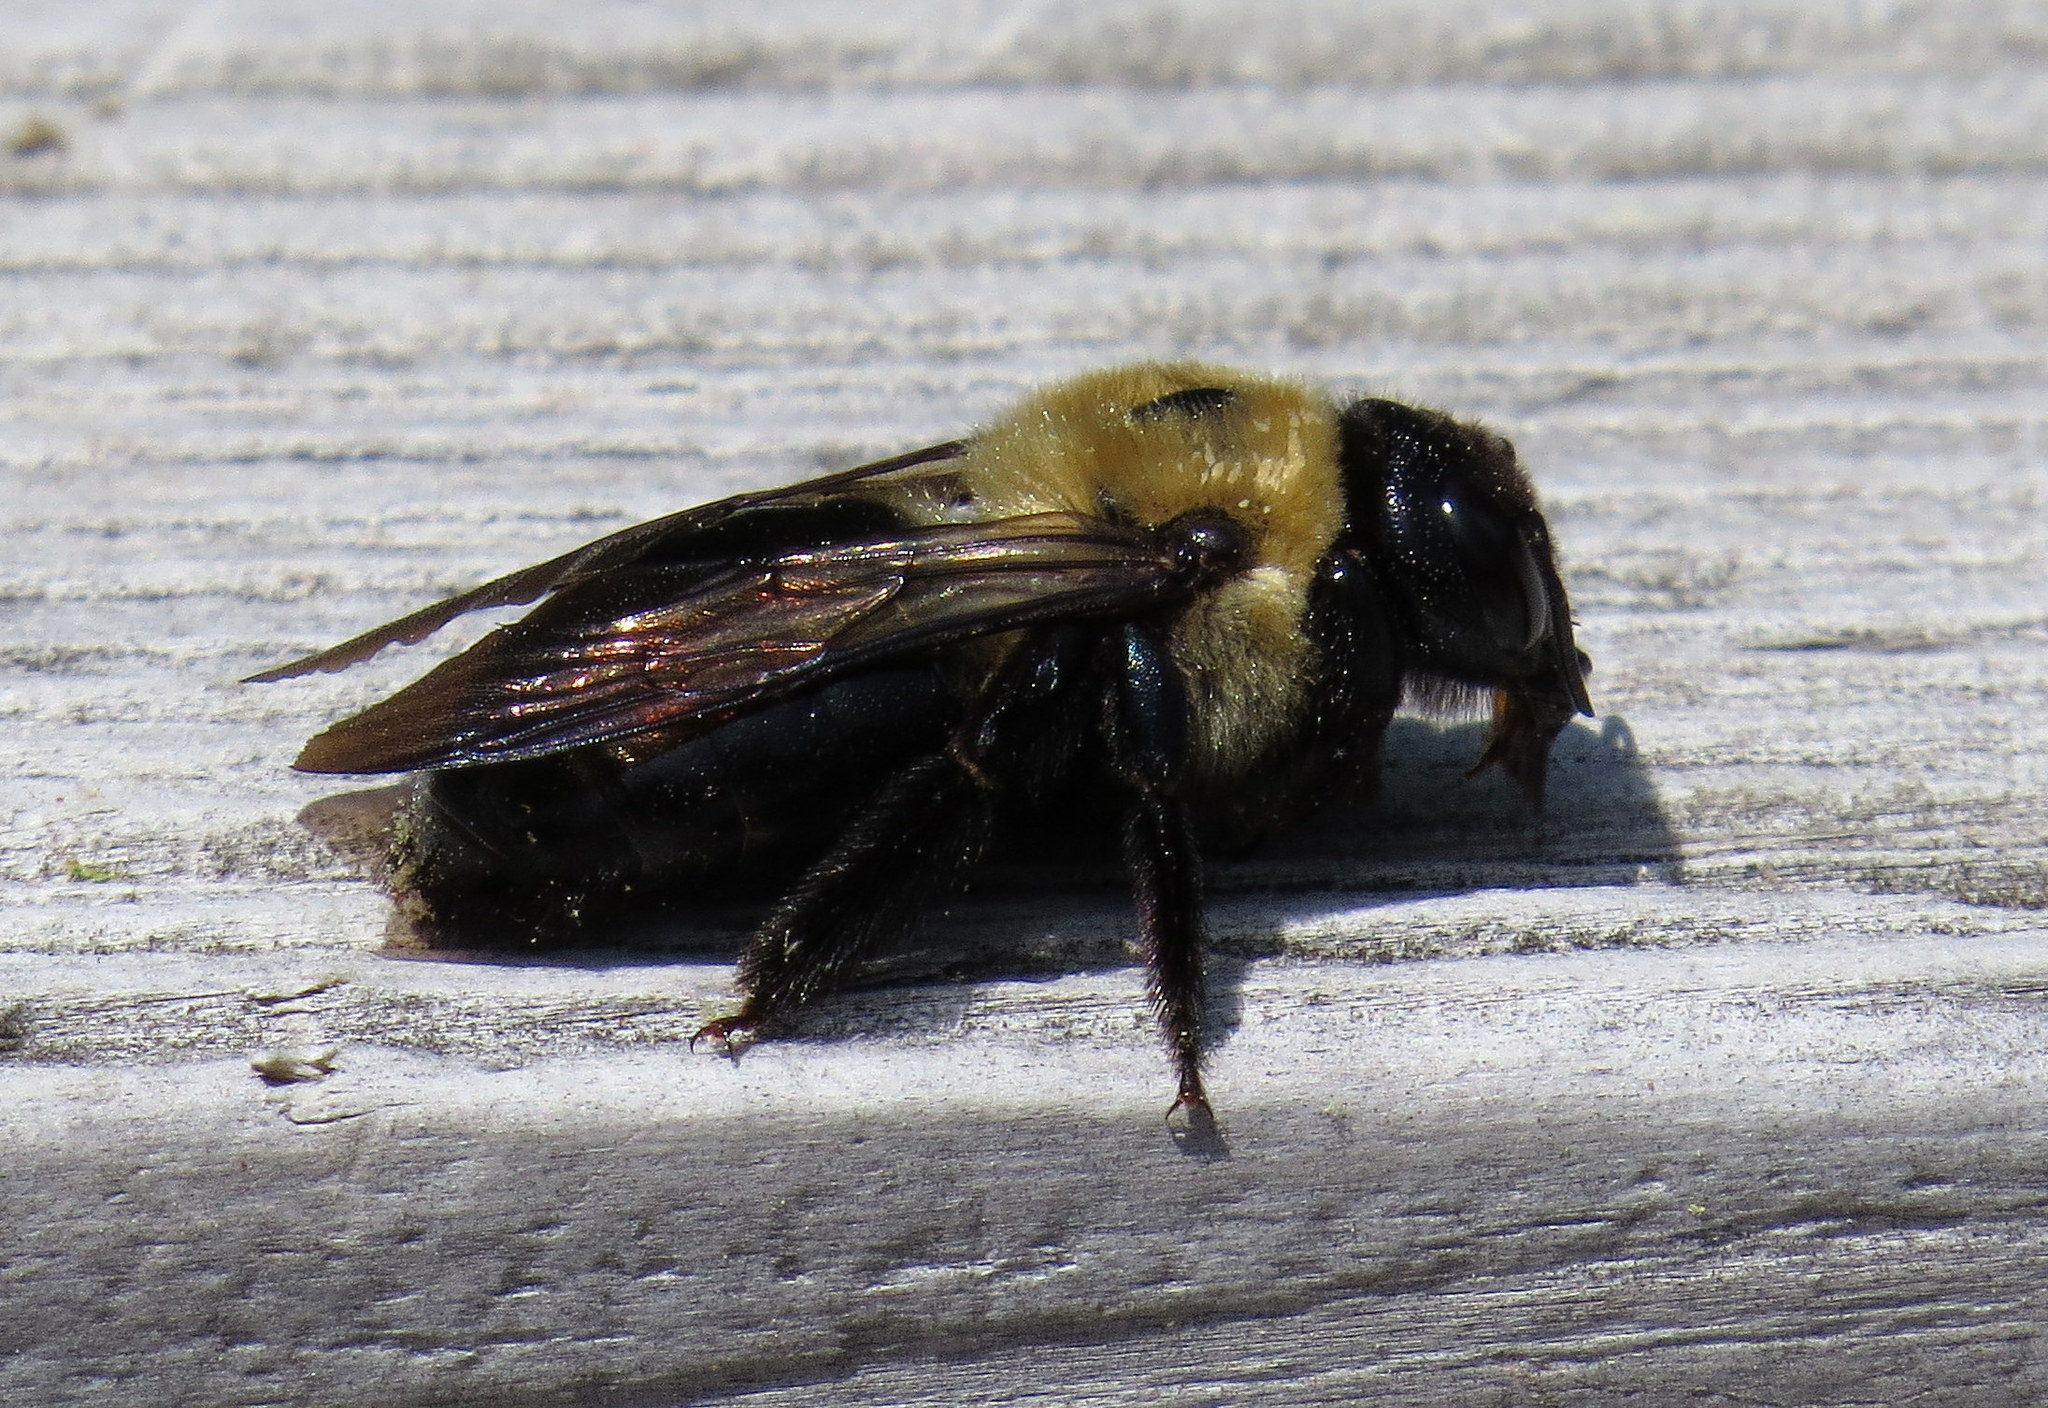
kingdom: Animalia
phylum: Arthropoda
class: Insecta
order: Hymenoptera
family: Apidae
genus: Xylocopa
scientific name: Xylocopa virginica
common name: Carpenter bee
